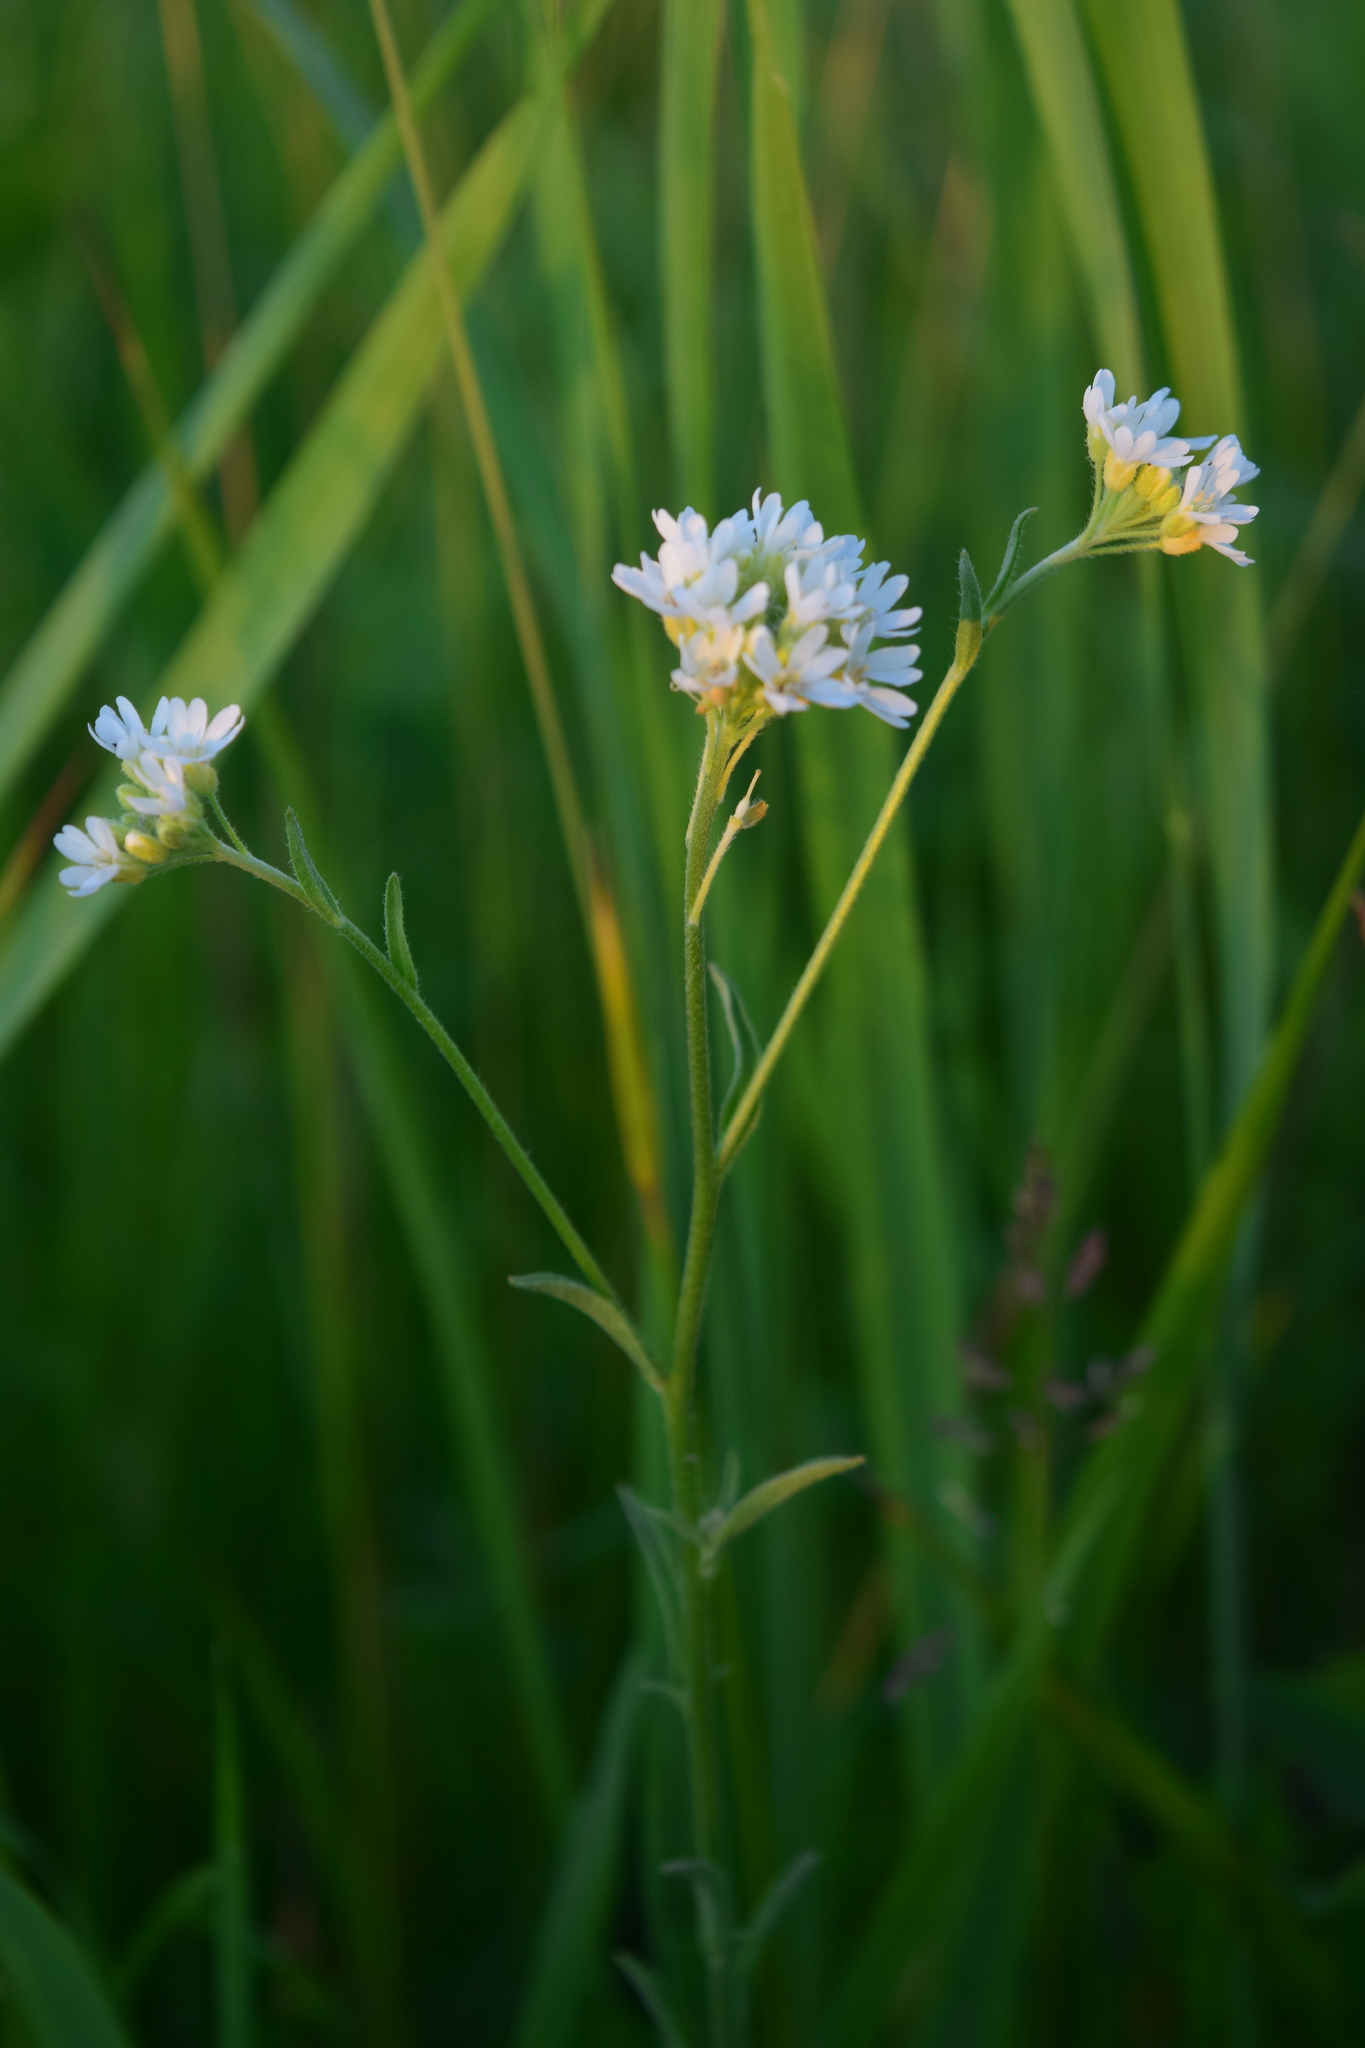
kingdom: Plantae
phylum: Tracheophyta
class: Magnoliopsida
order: Brassicales
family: Brassicaceae
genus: Berteroa
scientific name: Berteroa incana
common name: Hoary alison
